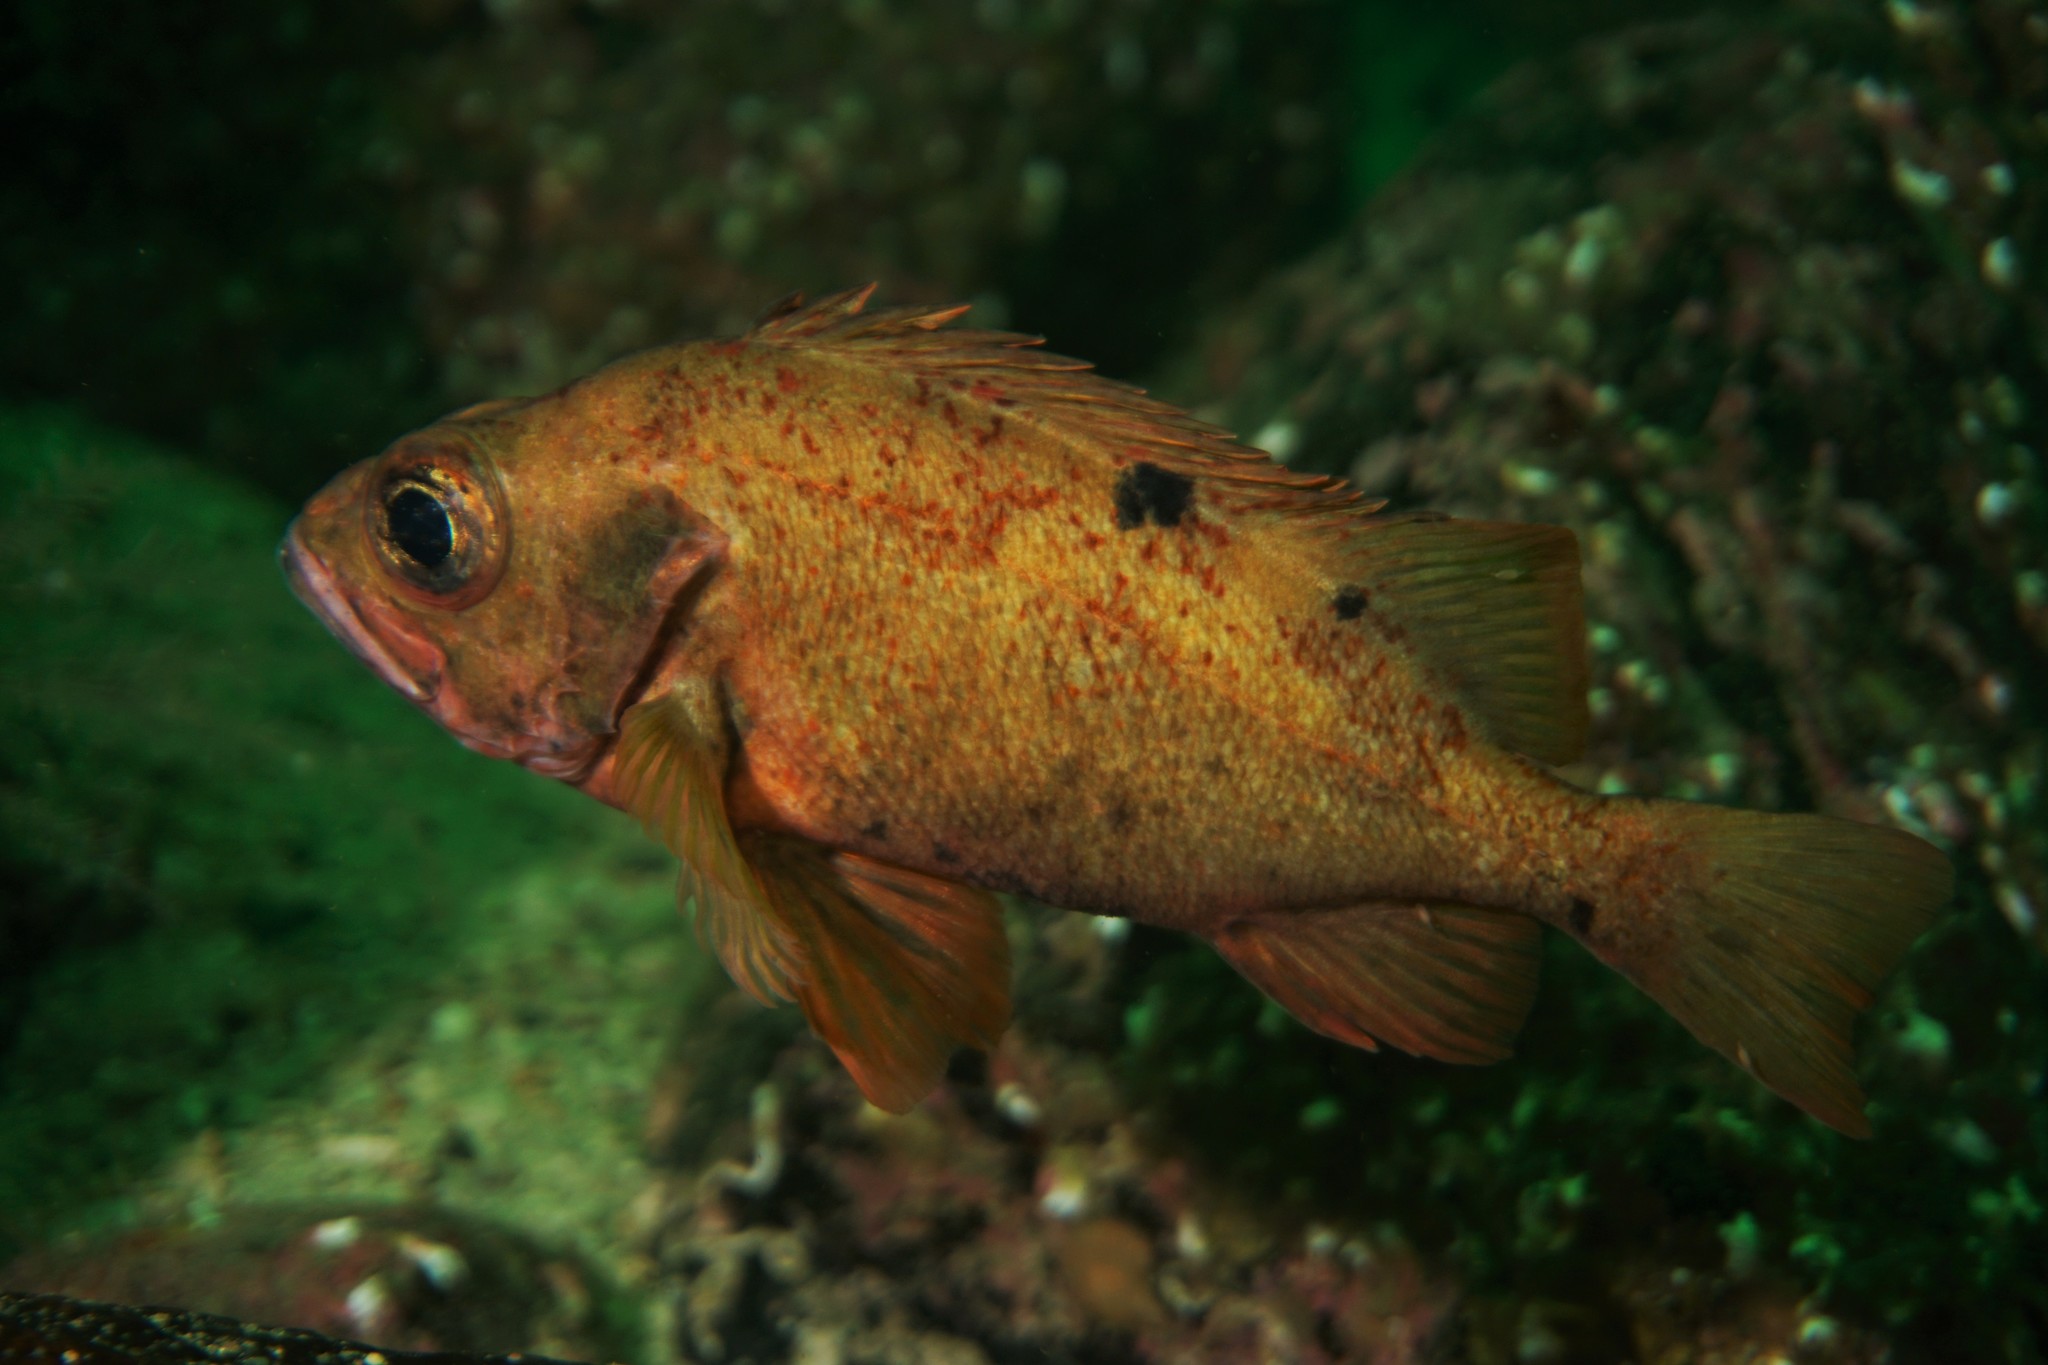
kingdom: Animalia
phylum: Chordata
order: Scorpaeniformes
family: Sebastidae
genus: Sebastes
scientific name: Sebastes viviparus
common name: Norway haddock
